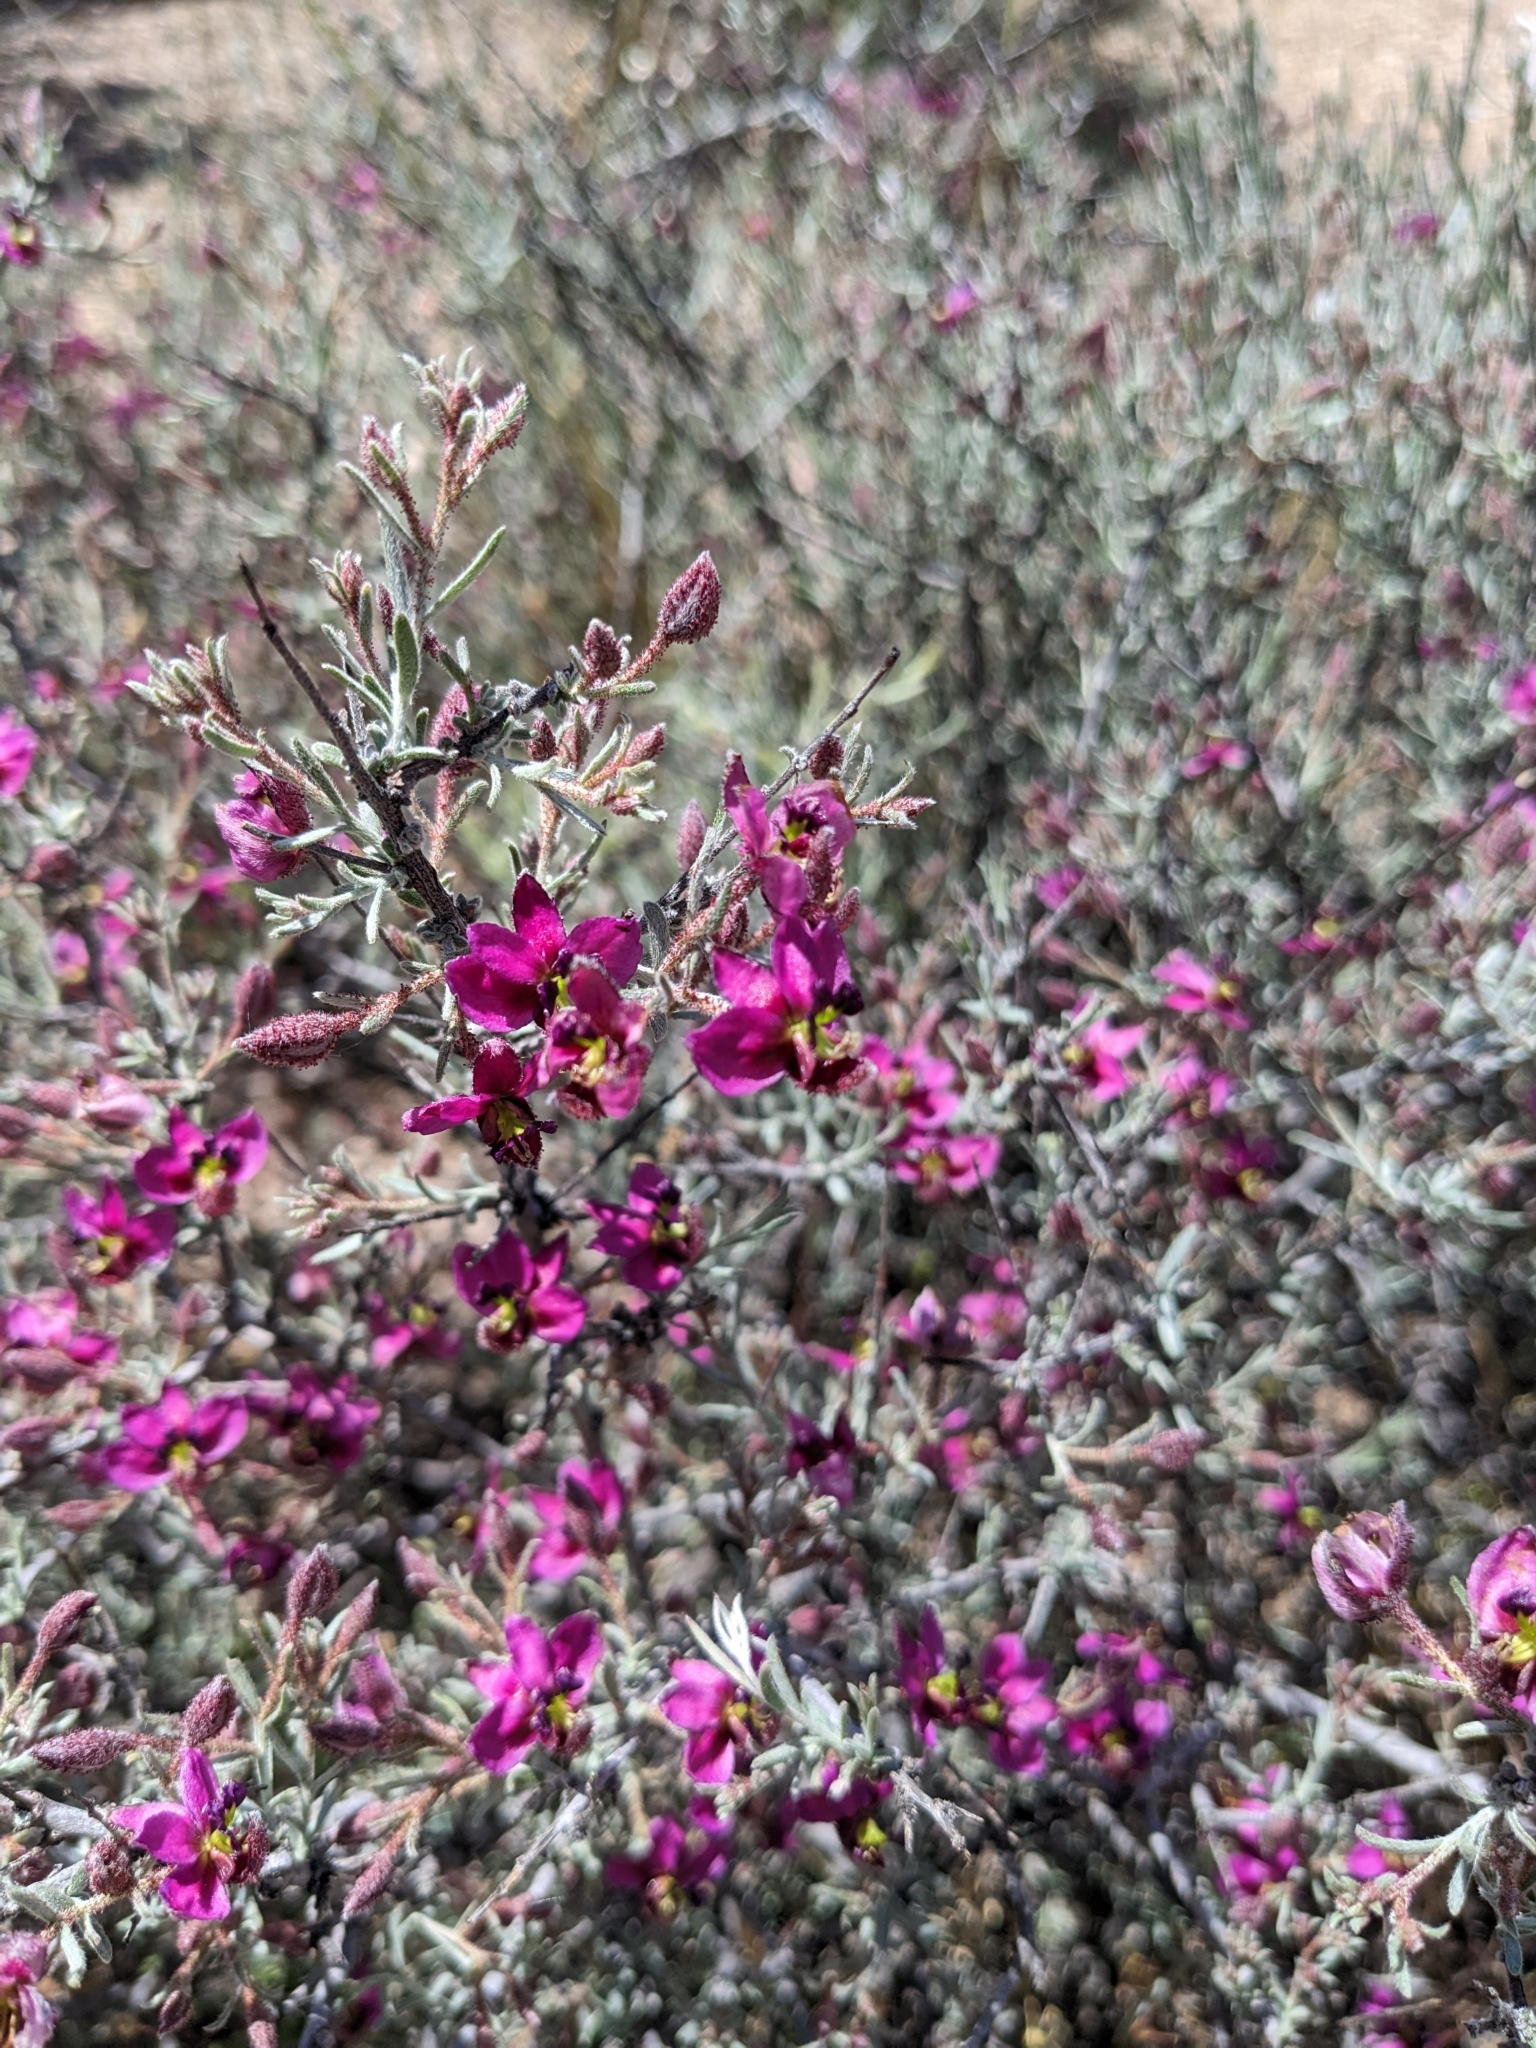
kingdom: Plantae
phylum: Tracheophyta
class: Magnoliopsida
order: Zygophyllales
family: Krameriaceae
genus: Krameria
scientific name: Krameria erecta
